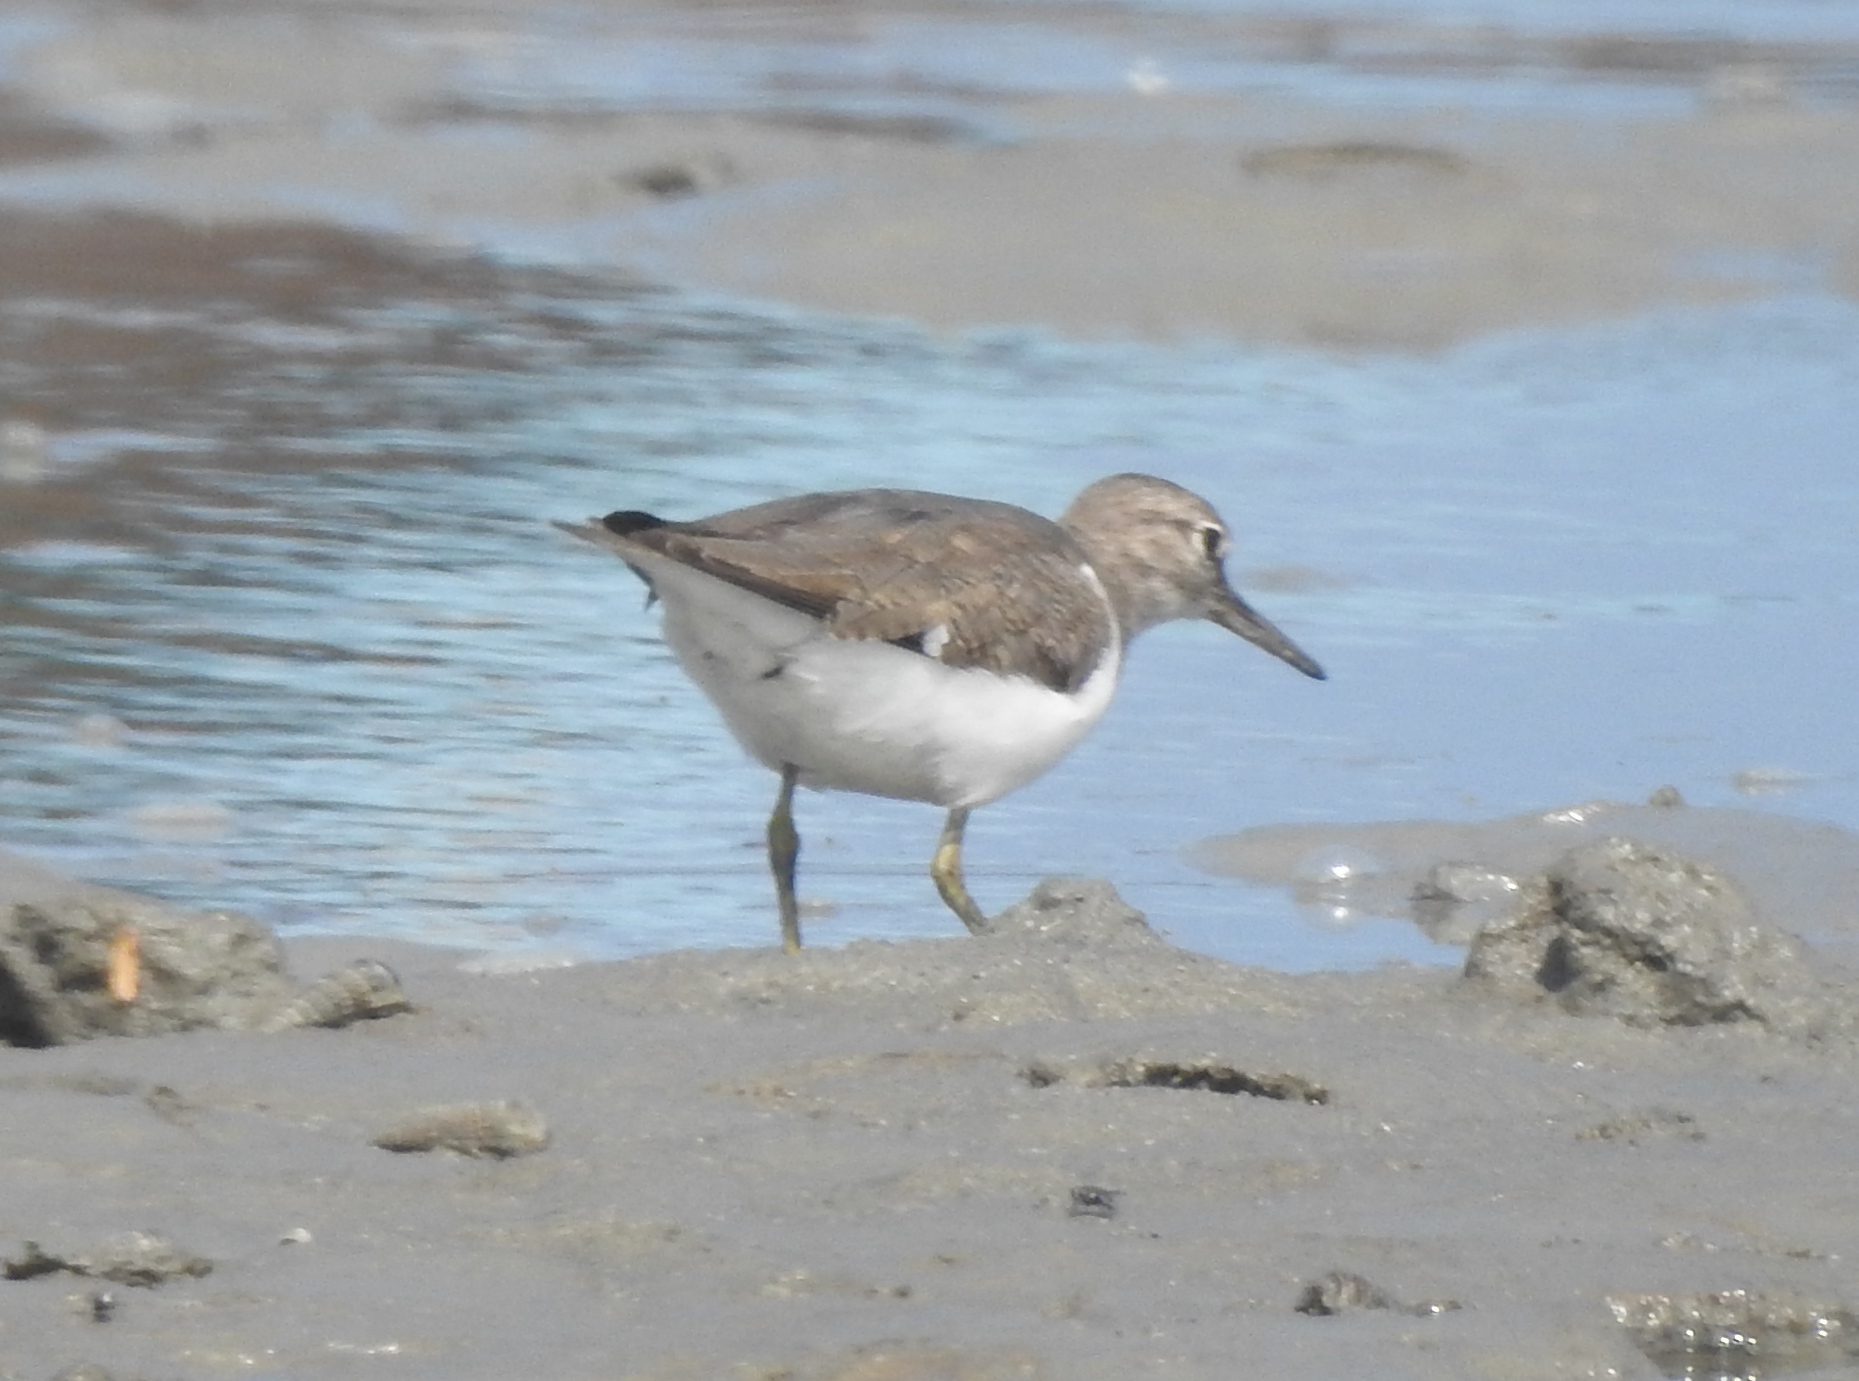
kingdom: Animalia
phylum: Chordata
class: Aves
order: Charadriiformes
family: Scolopacidae
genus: Actitis
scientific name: Actitis hypoleucos
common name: Common sandpiper
